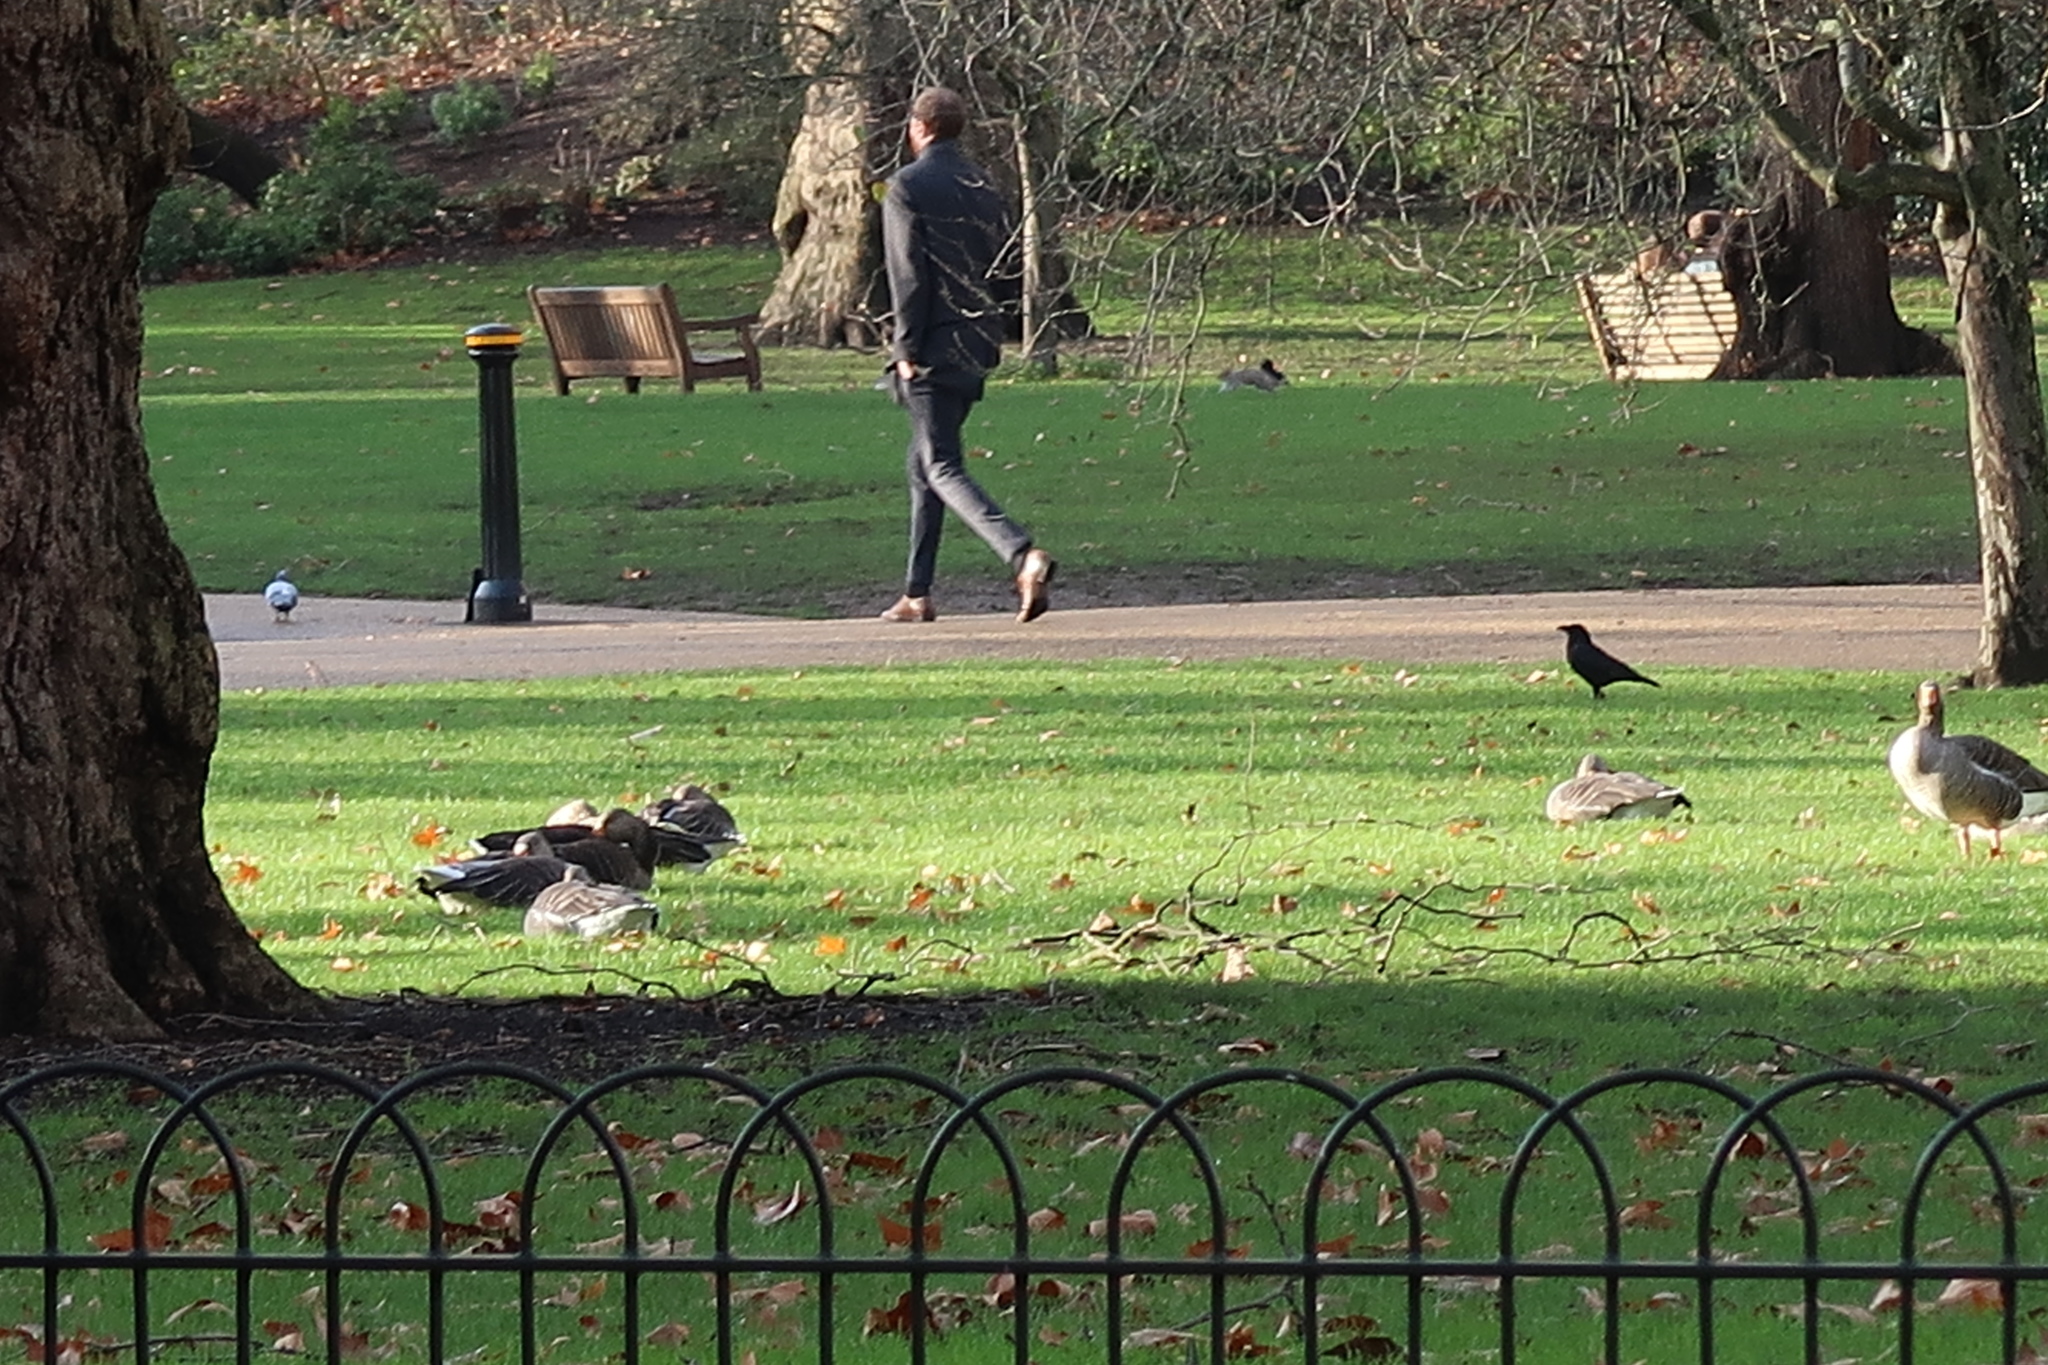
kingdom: Animalia
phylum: Chordata
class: Aves
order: Anseriformes
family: Anatidae
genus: Anser
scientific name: Anser anser
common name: Greylag goose
